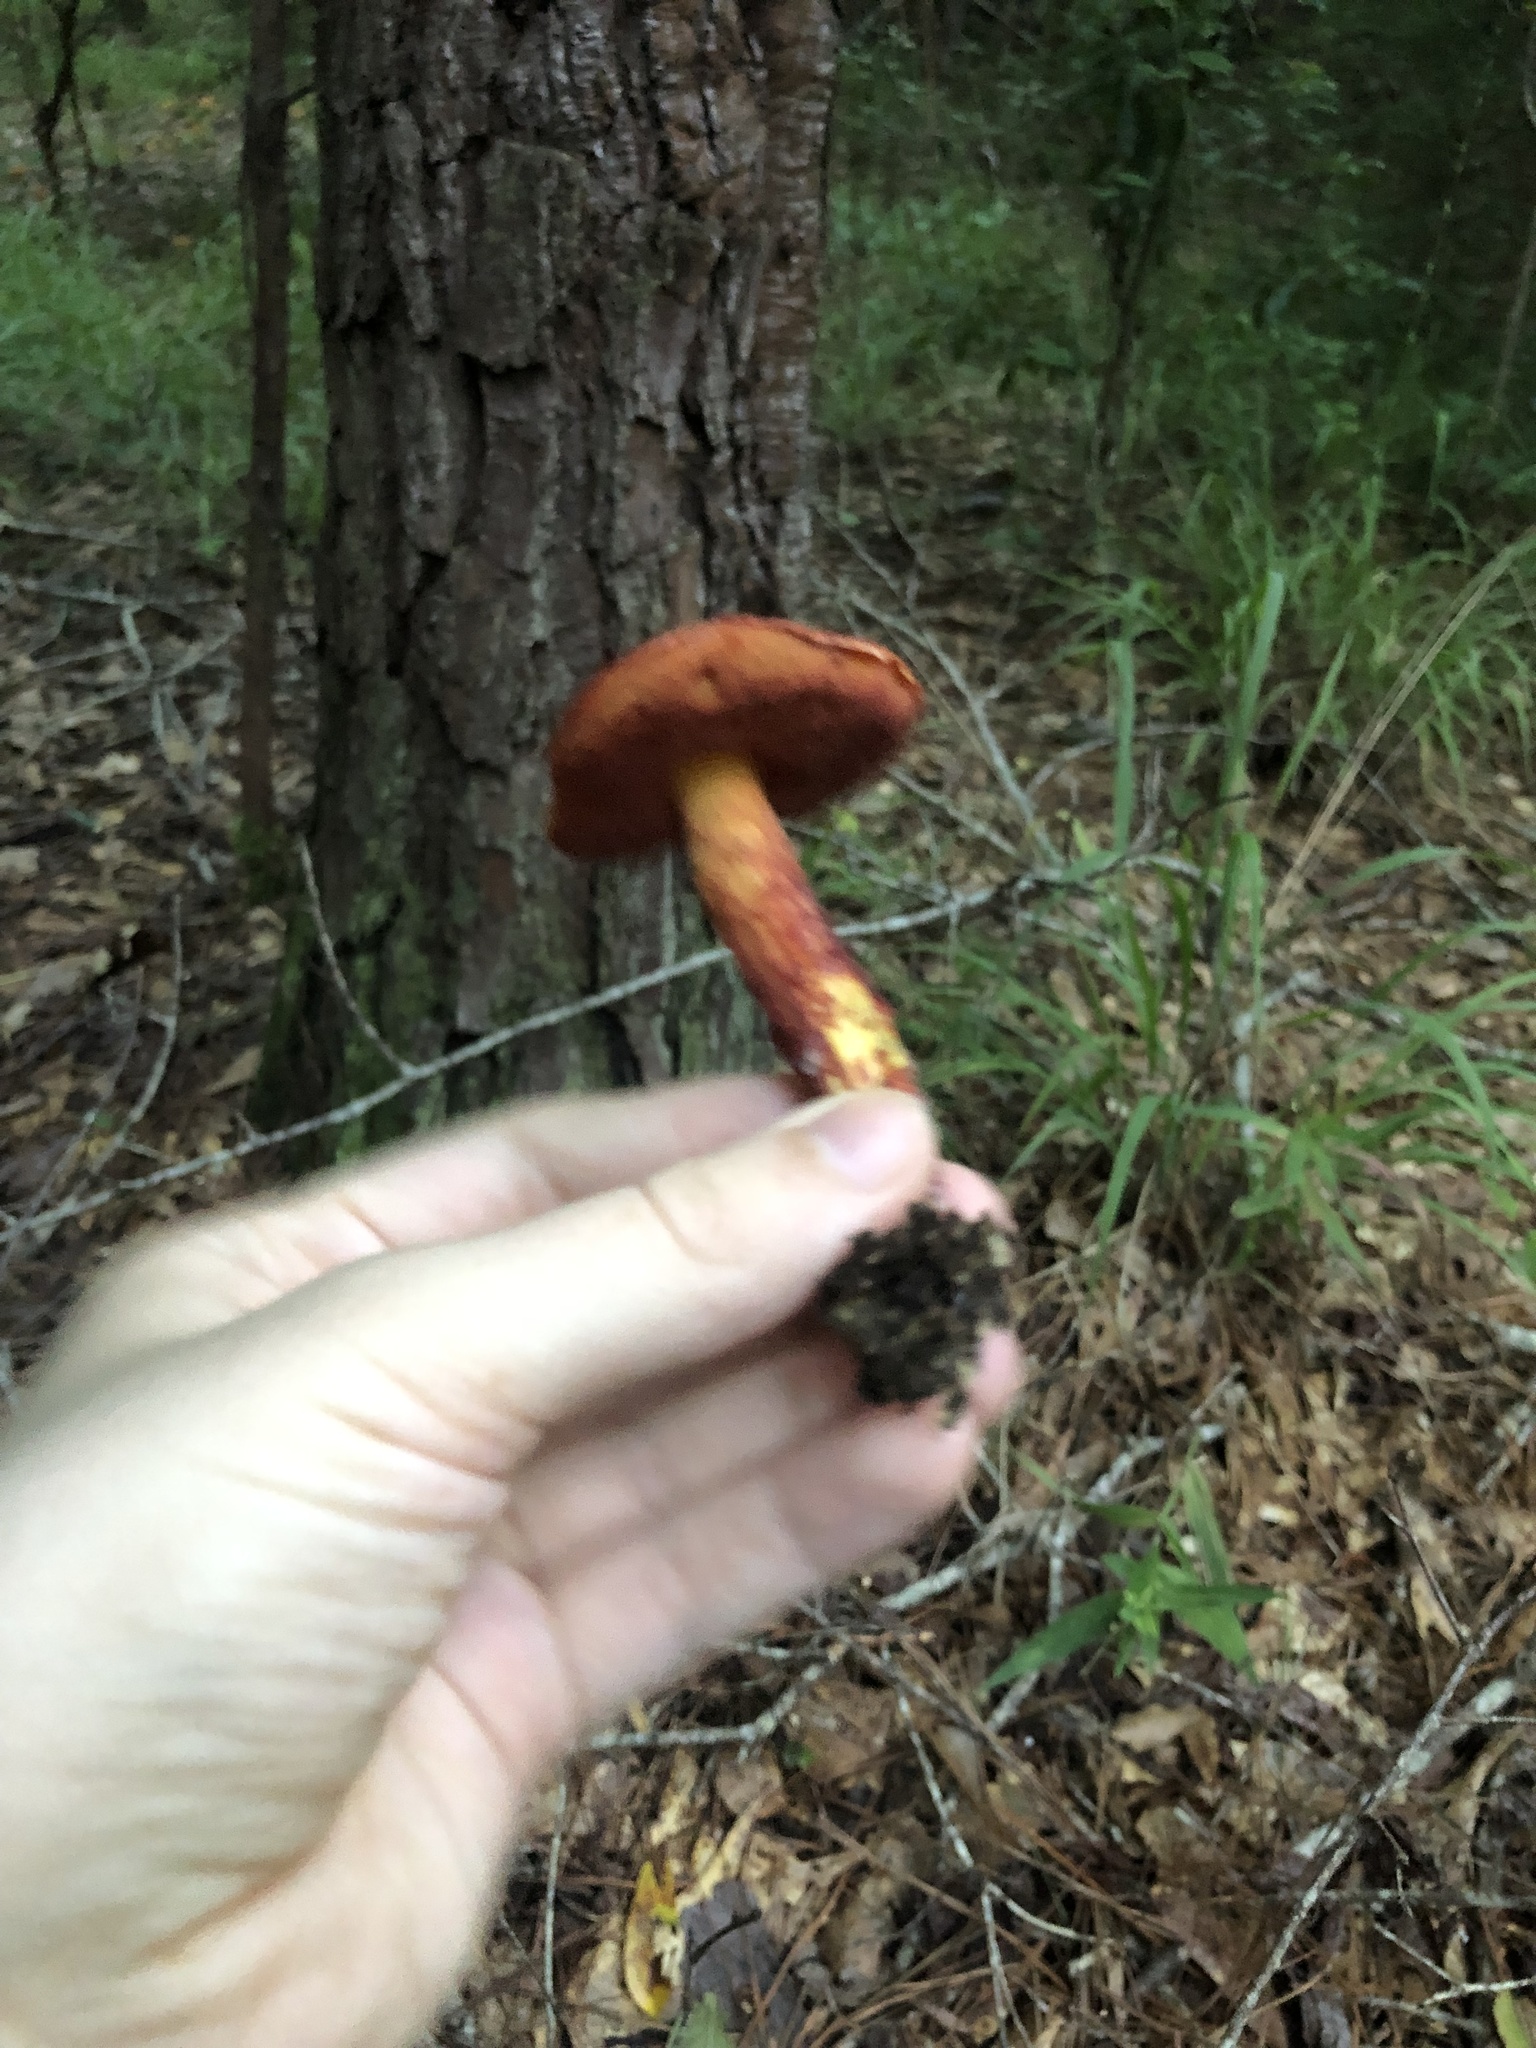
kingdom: Fungi
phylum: Basidiomycota
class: Agaricomycetes
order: Boletales
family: Boletaceae
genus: Butyriboletus
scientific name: Butyriboletus frostii
